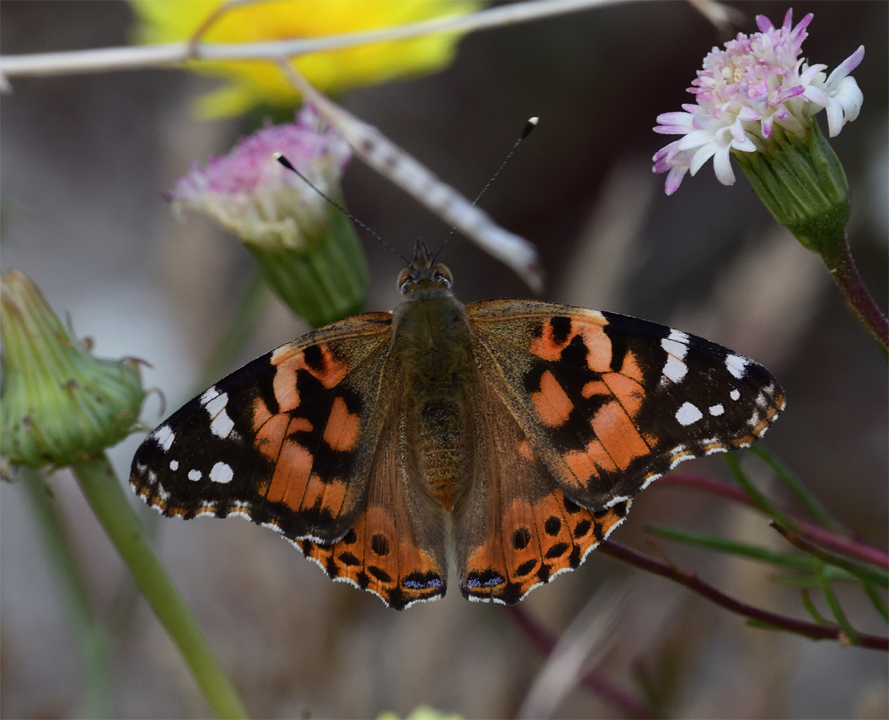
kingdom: Animalia
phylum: Arthropoda
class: Insecta
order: Lepidoptera
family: Nymphalidae
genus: Vanessa
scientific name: Vanessa cardui
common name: Painted lady
